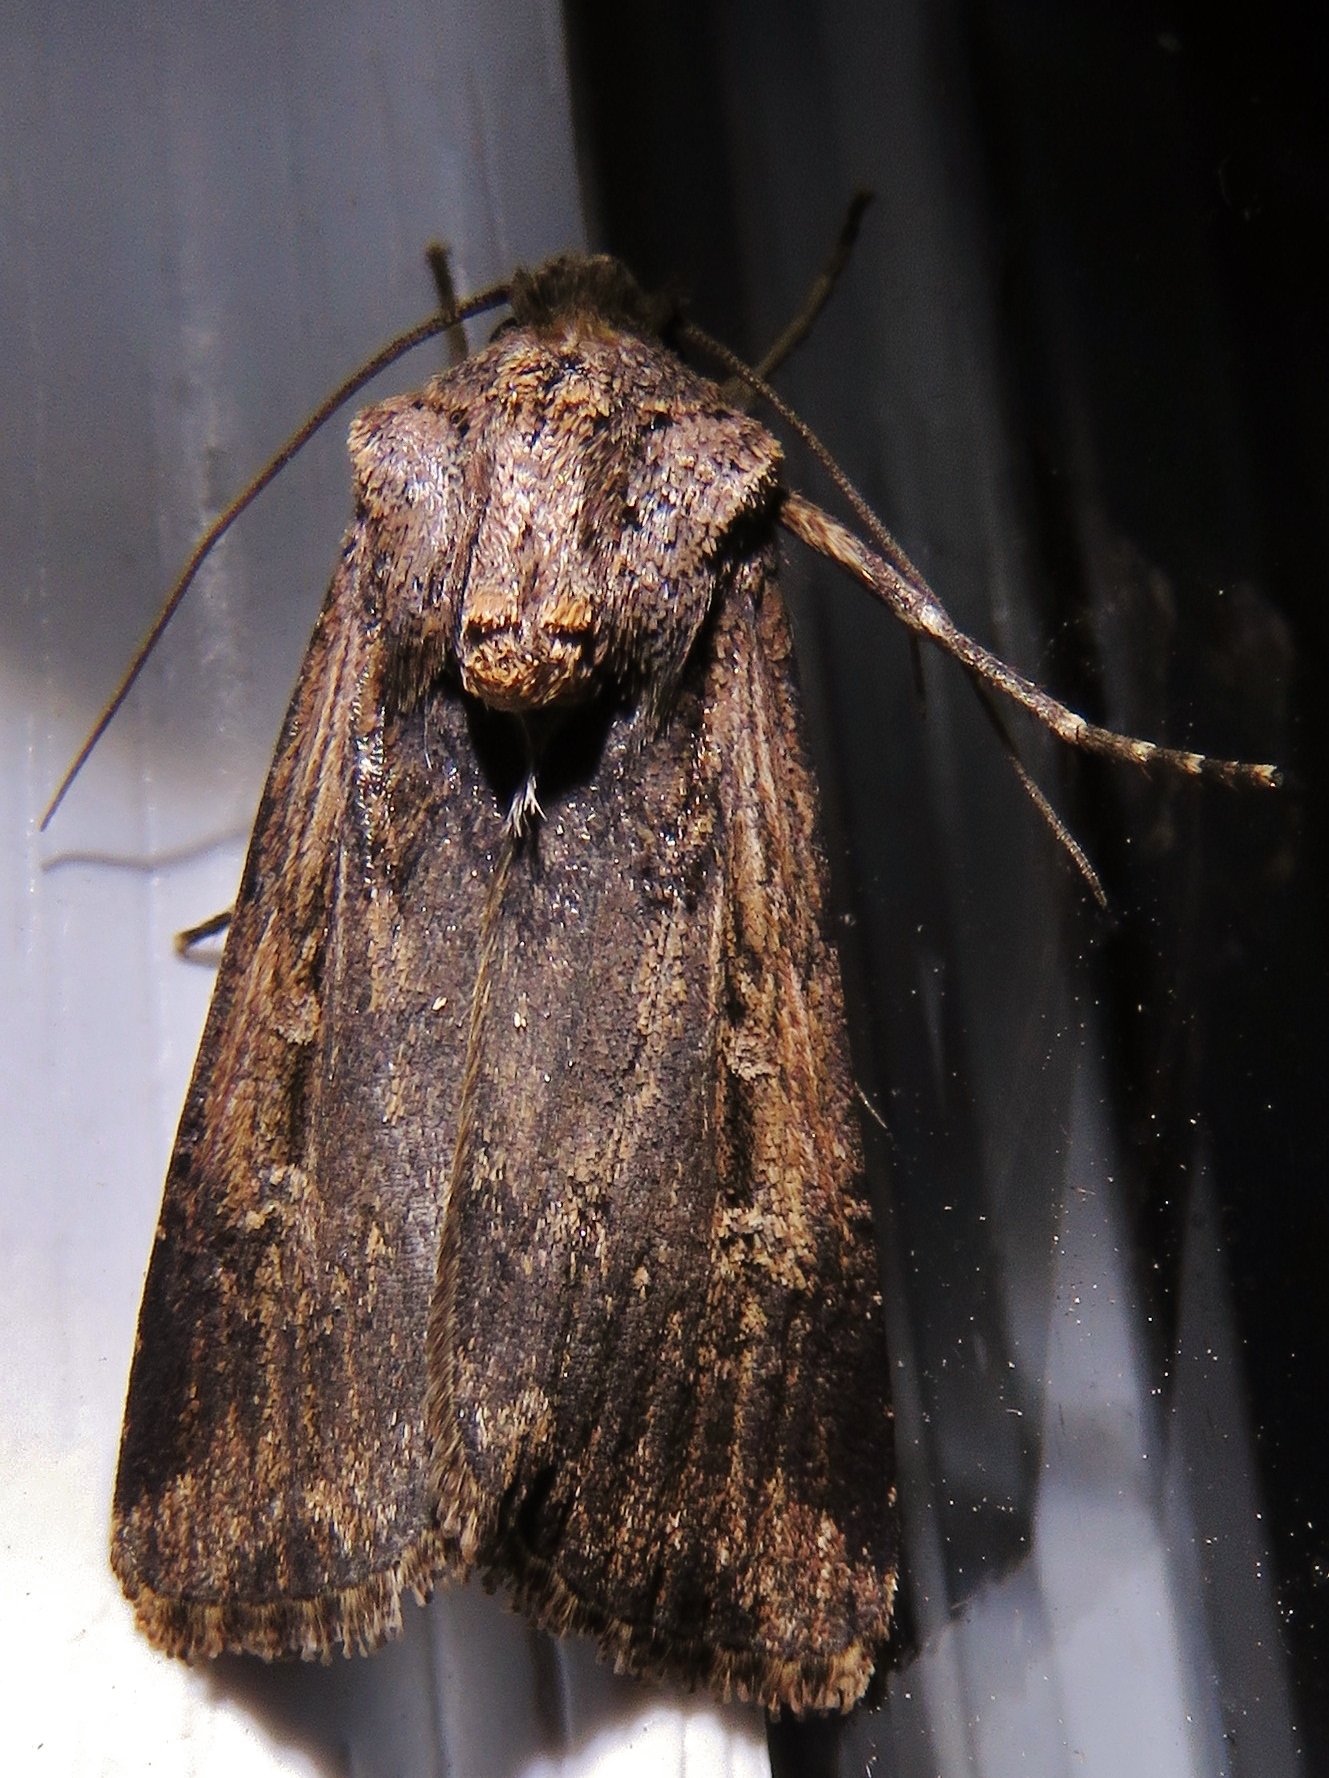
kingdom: Animalia
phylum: Arthropoda
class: Insecta
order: Lepidoptera
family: Noctuidae
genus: Feltia
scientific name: Feltia subterranea
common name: Granulate cutworm
